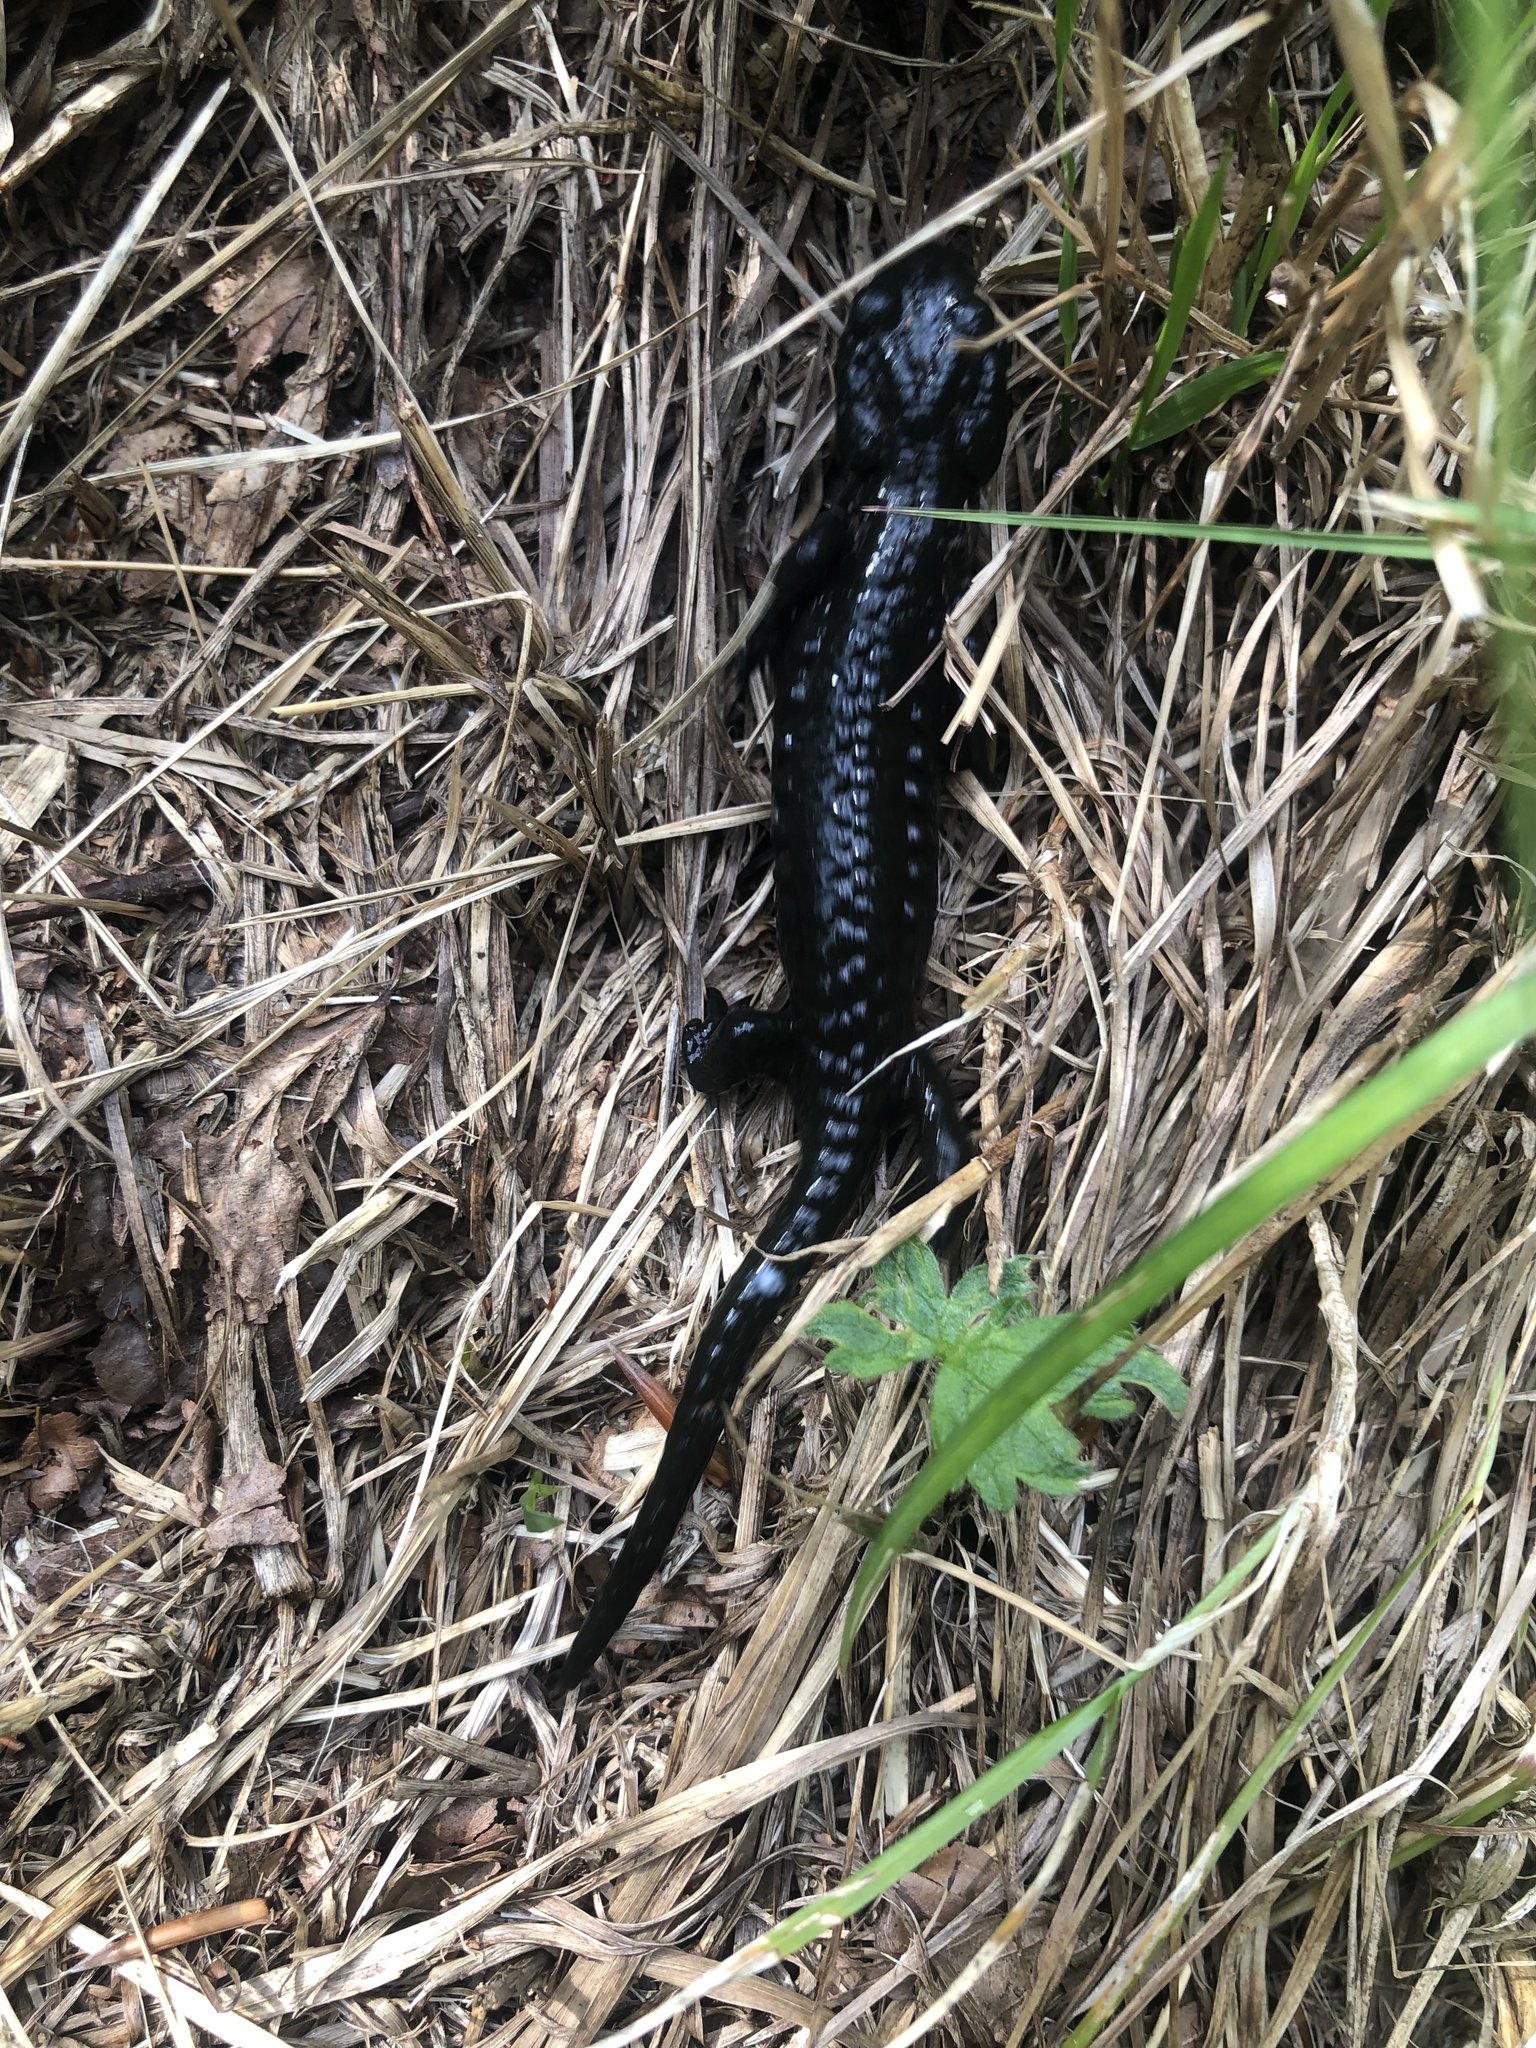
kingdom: Animalia
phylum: Chordata
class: Amphibia
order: Caudata
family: Salamandridae
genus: Salamandra
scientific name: Salamandra atra
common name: Alpine salamander
